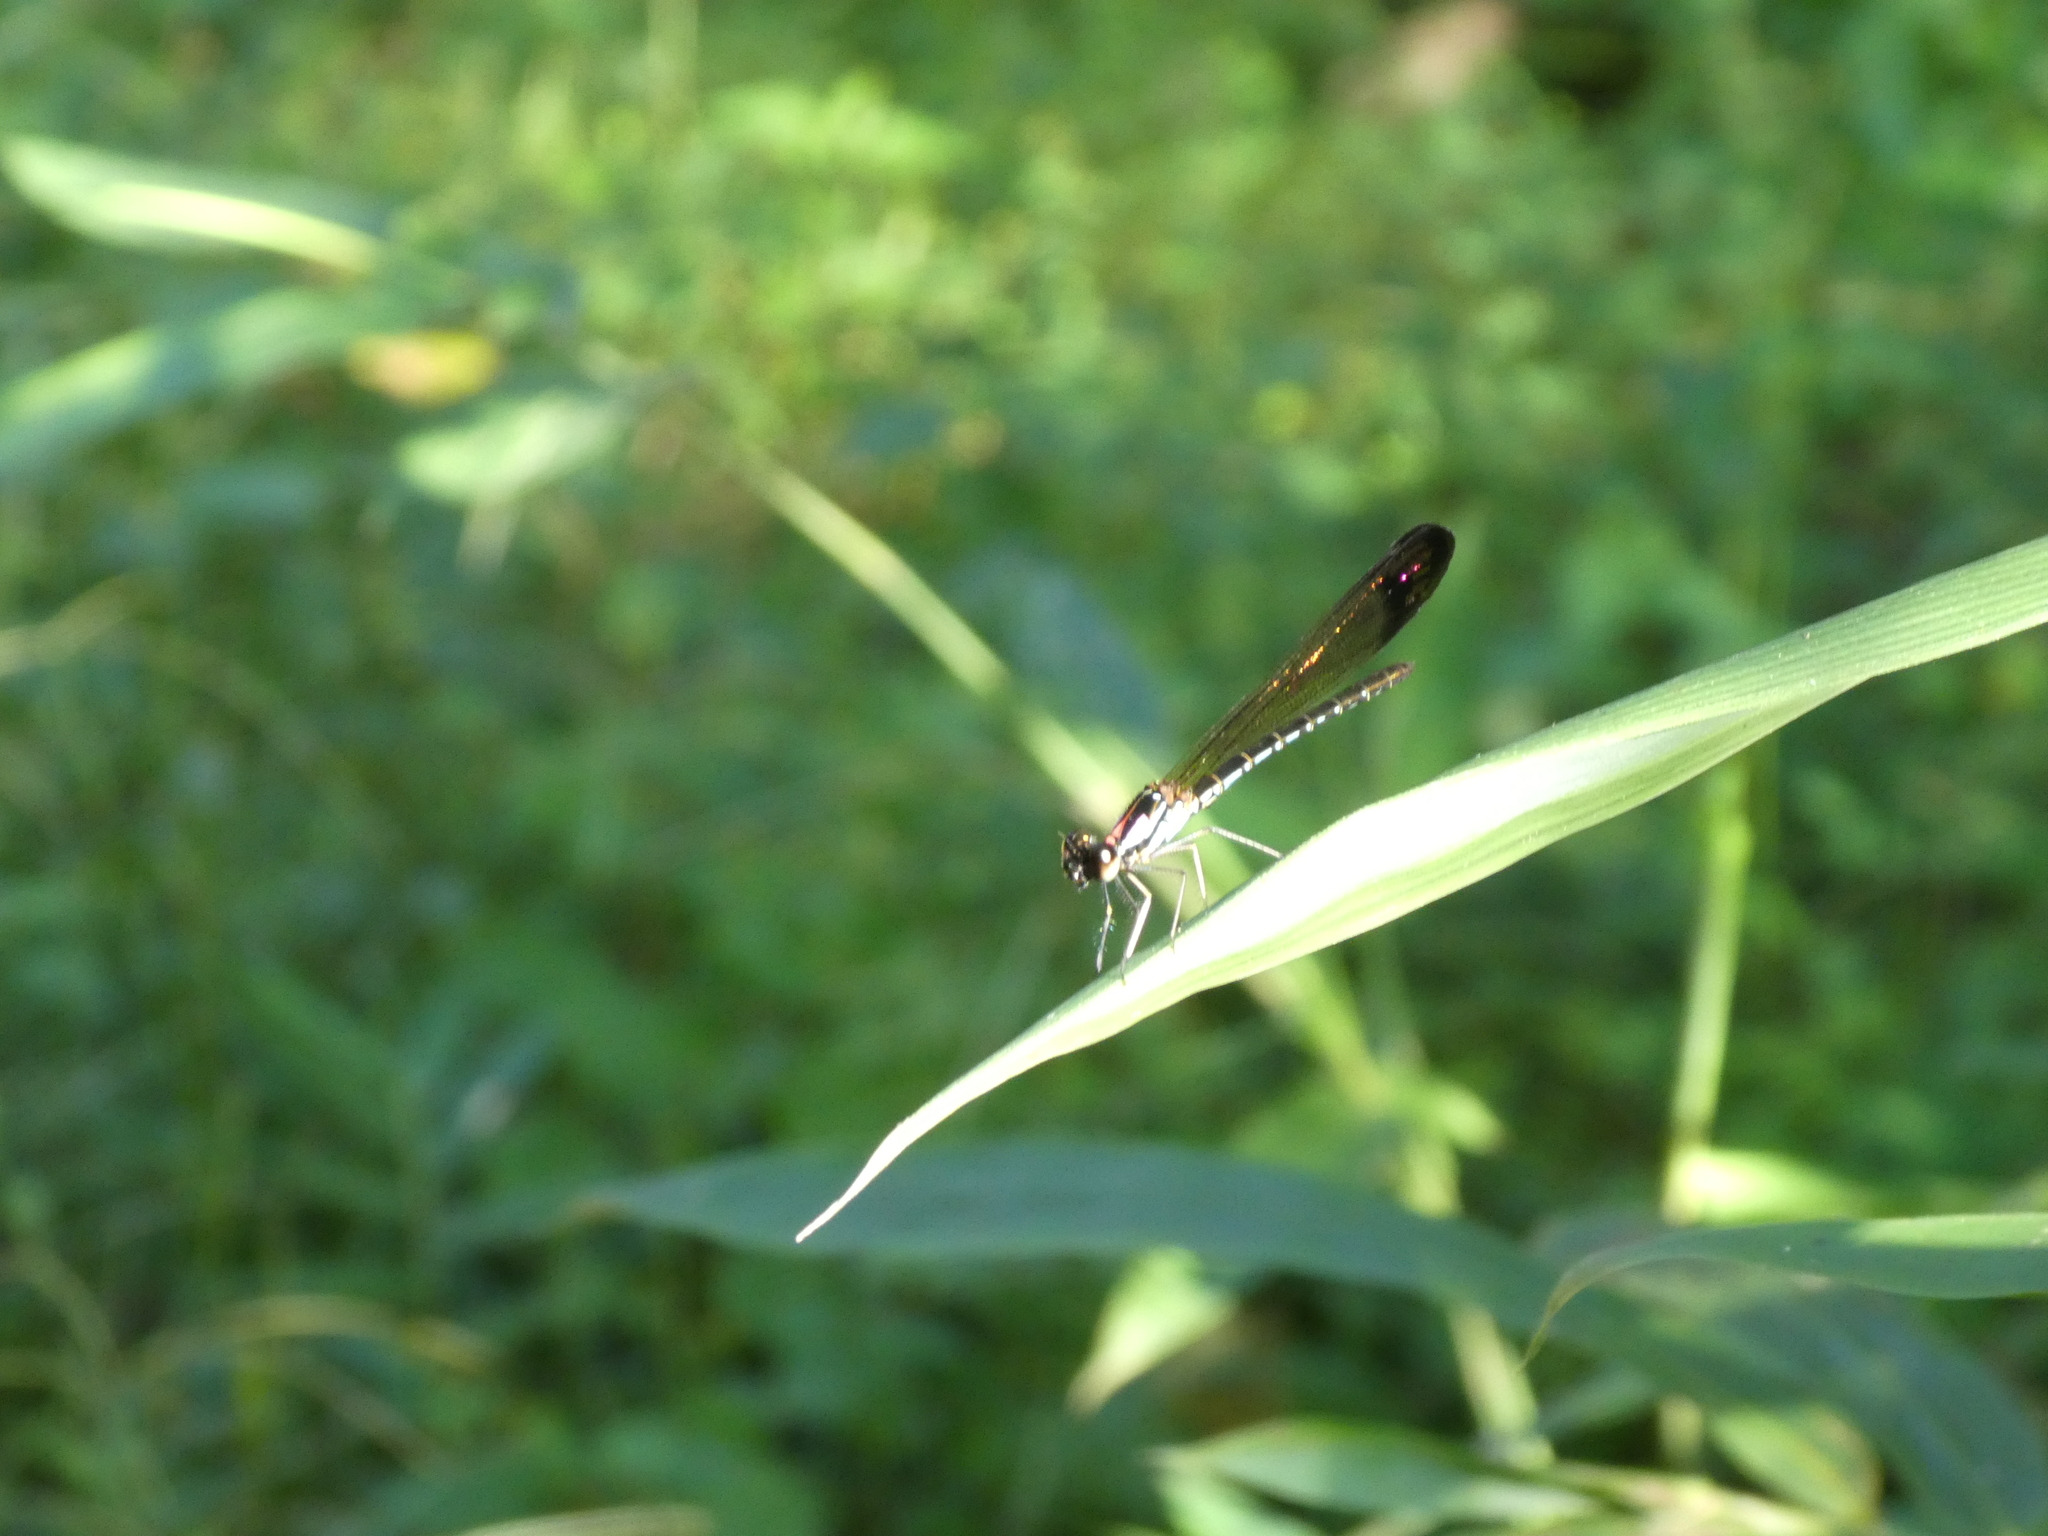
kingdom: Animalia
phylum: Arthropoda
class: Insecta
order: Odonata
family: Chlorocyphidae
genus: Heliocypha
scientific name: Heliocypha biforata
